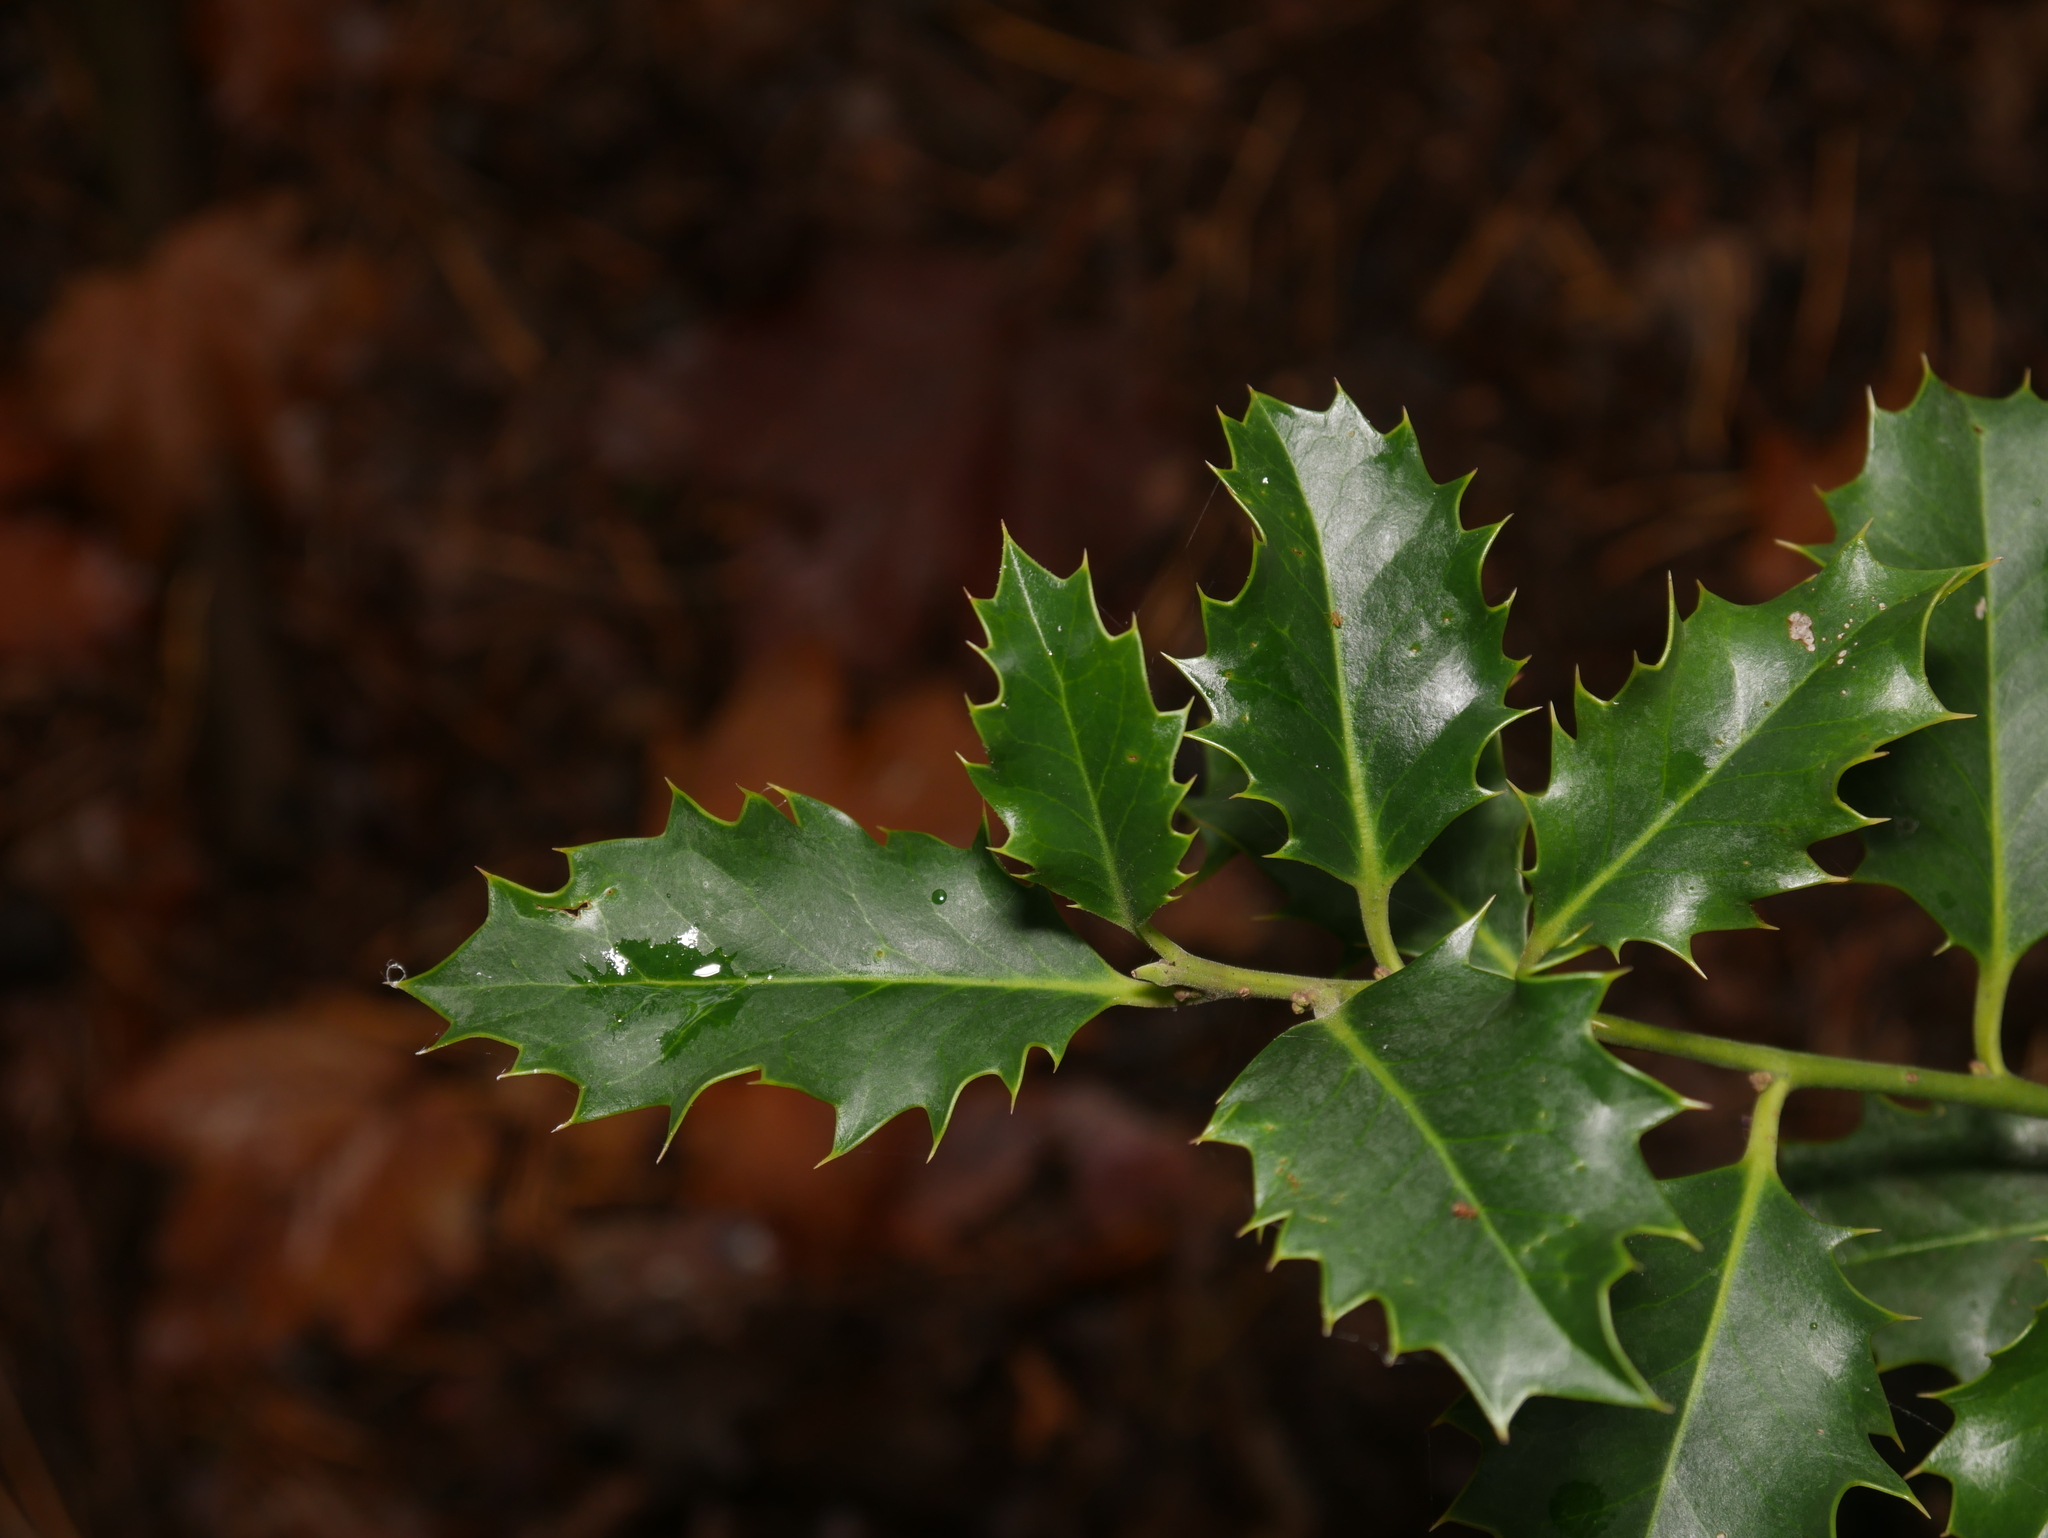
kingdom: Plantae
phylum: Tracheophyta
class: Magnoliopsida
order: Aquifoliales
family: Aquifoliaceae
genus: Ilex
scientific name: Ilex aquifolium
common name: English holly
